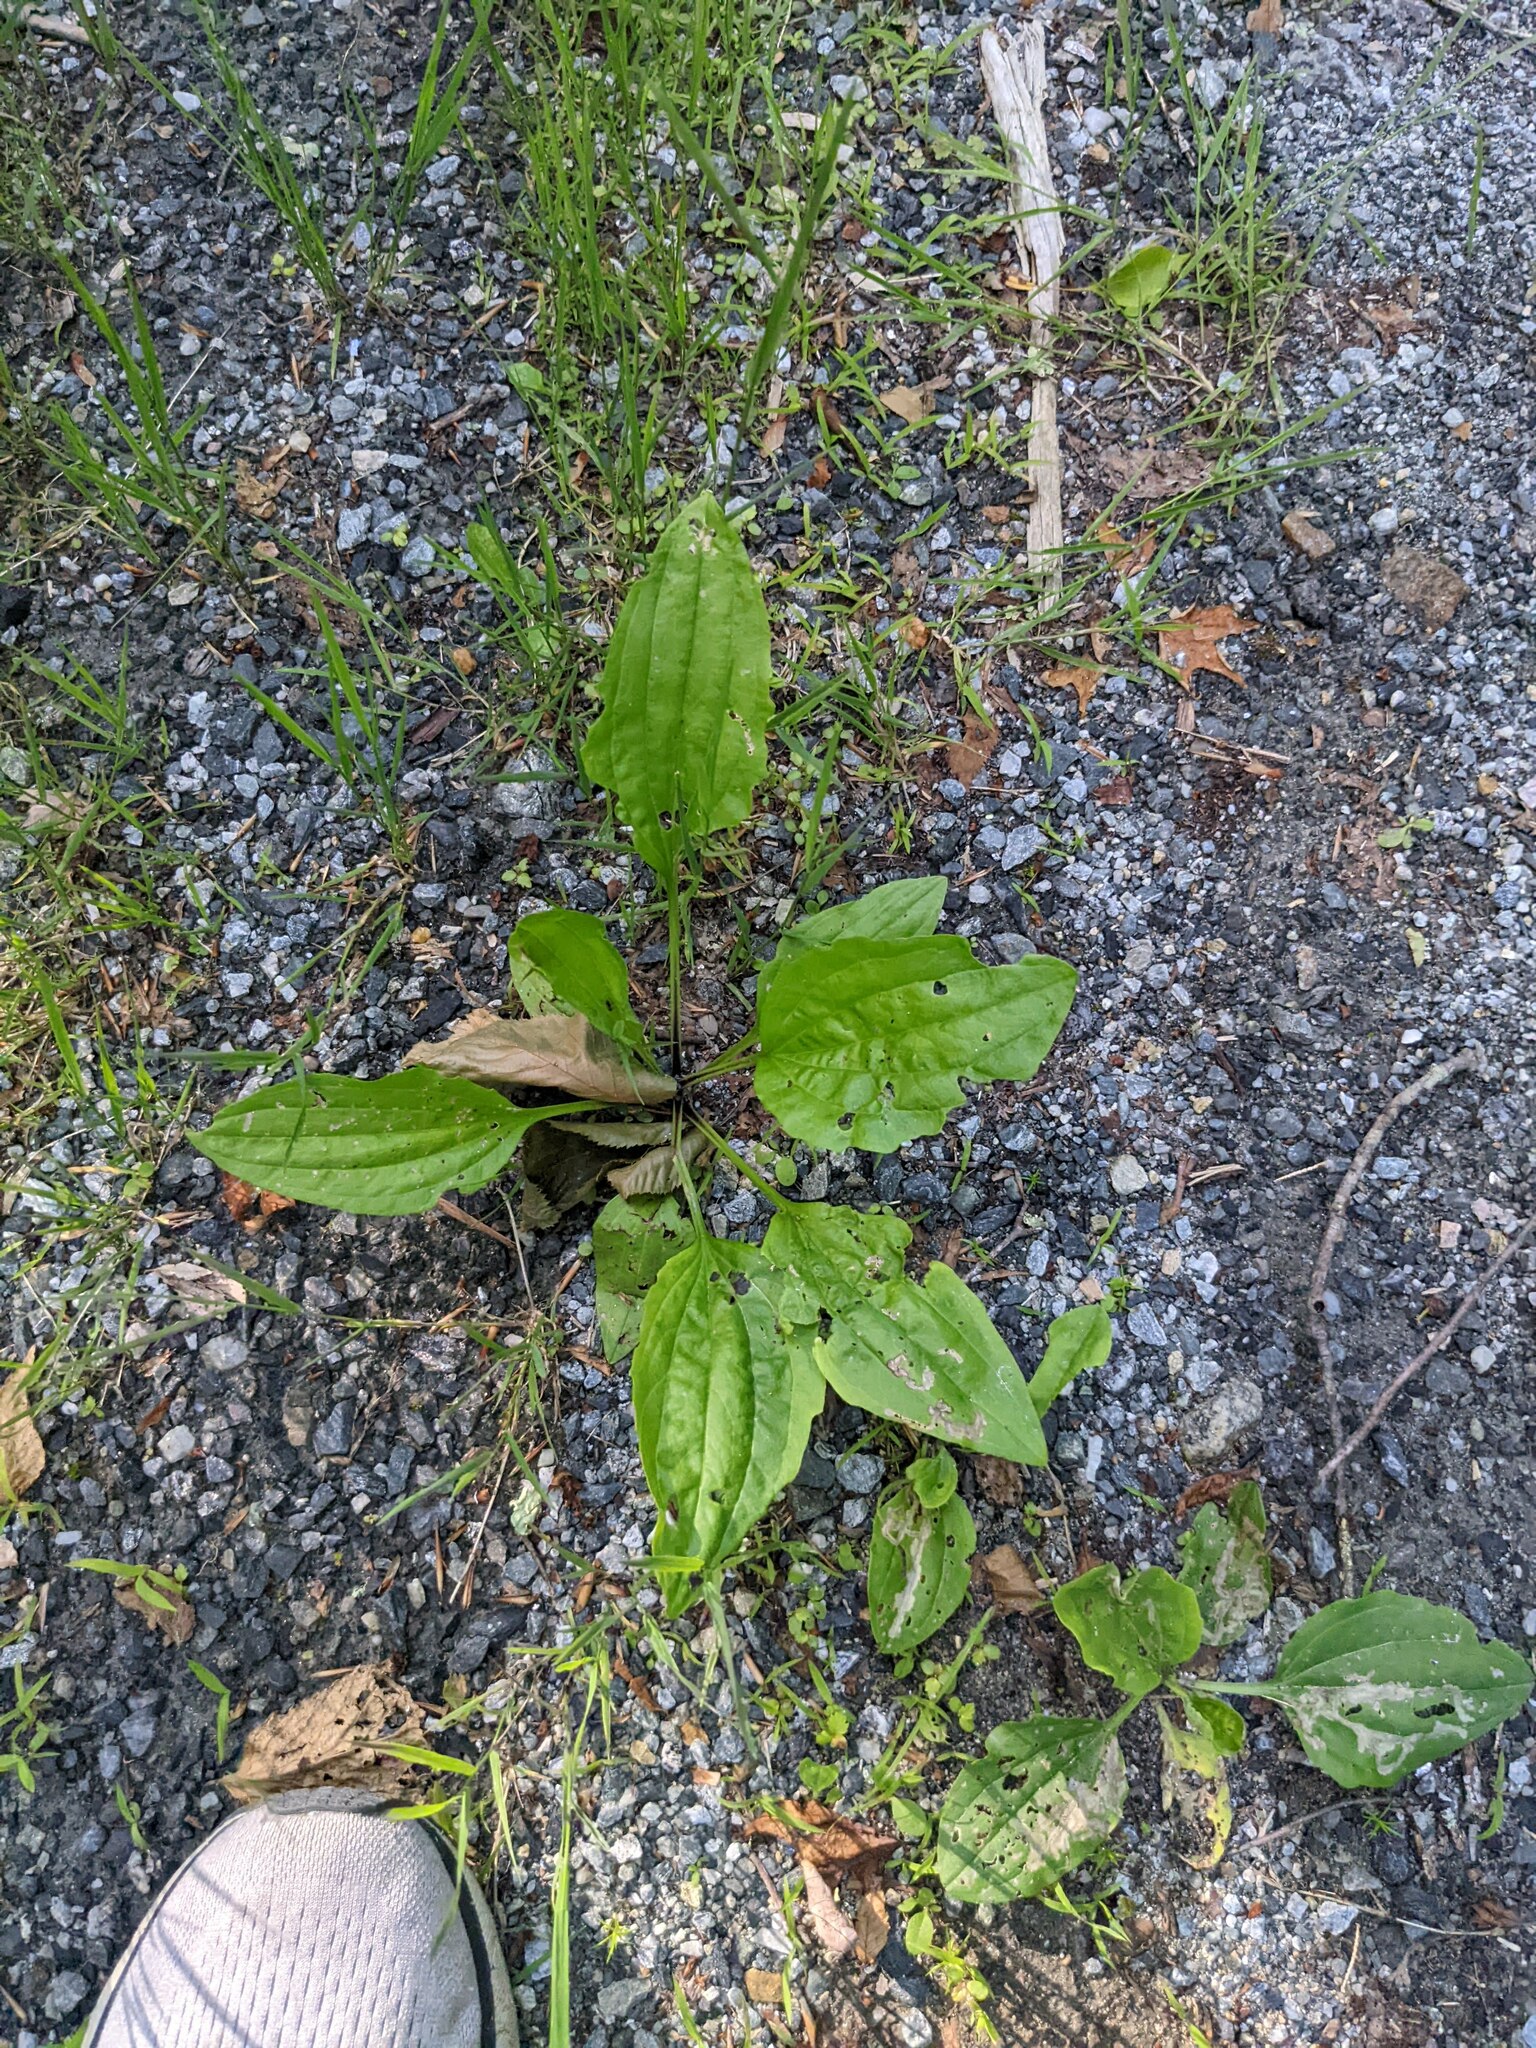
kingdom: Plantae
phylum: Tracheophyta
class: Magnoliopsida
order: Lamiales
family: Plantaginaceae
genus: Plantago
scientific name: Plantago rugelii
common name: American plantain
